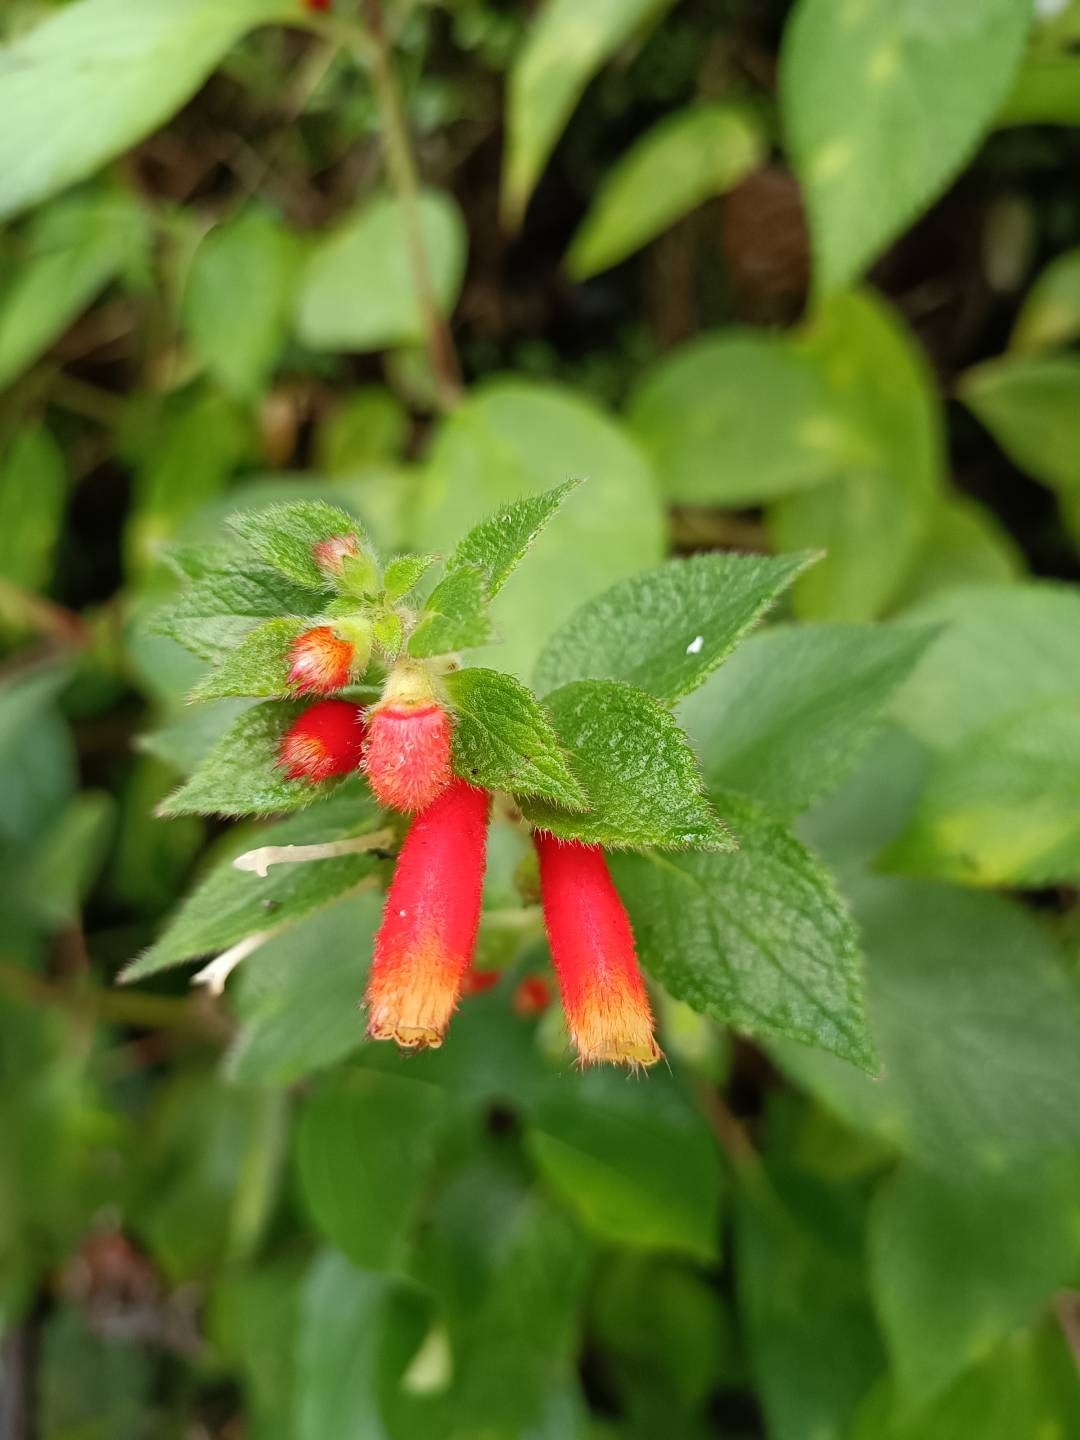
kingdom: Plantae
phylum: Tracheophyta
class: Magnoliopsida
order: Lamiales
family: Gesneriaceae
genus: Kohleria
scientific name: Kohleria tubiflora
